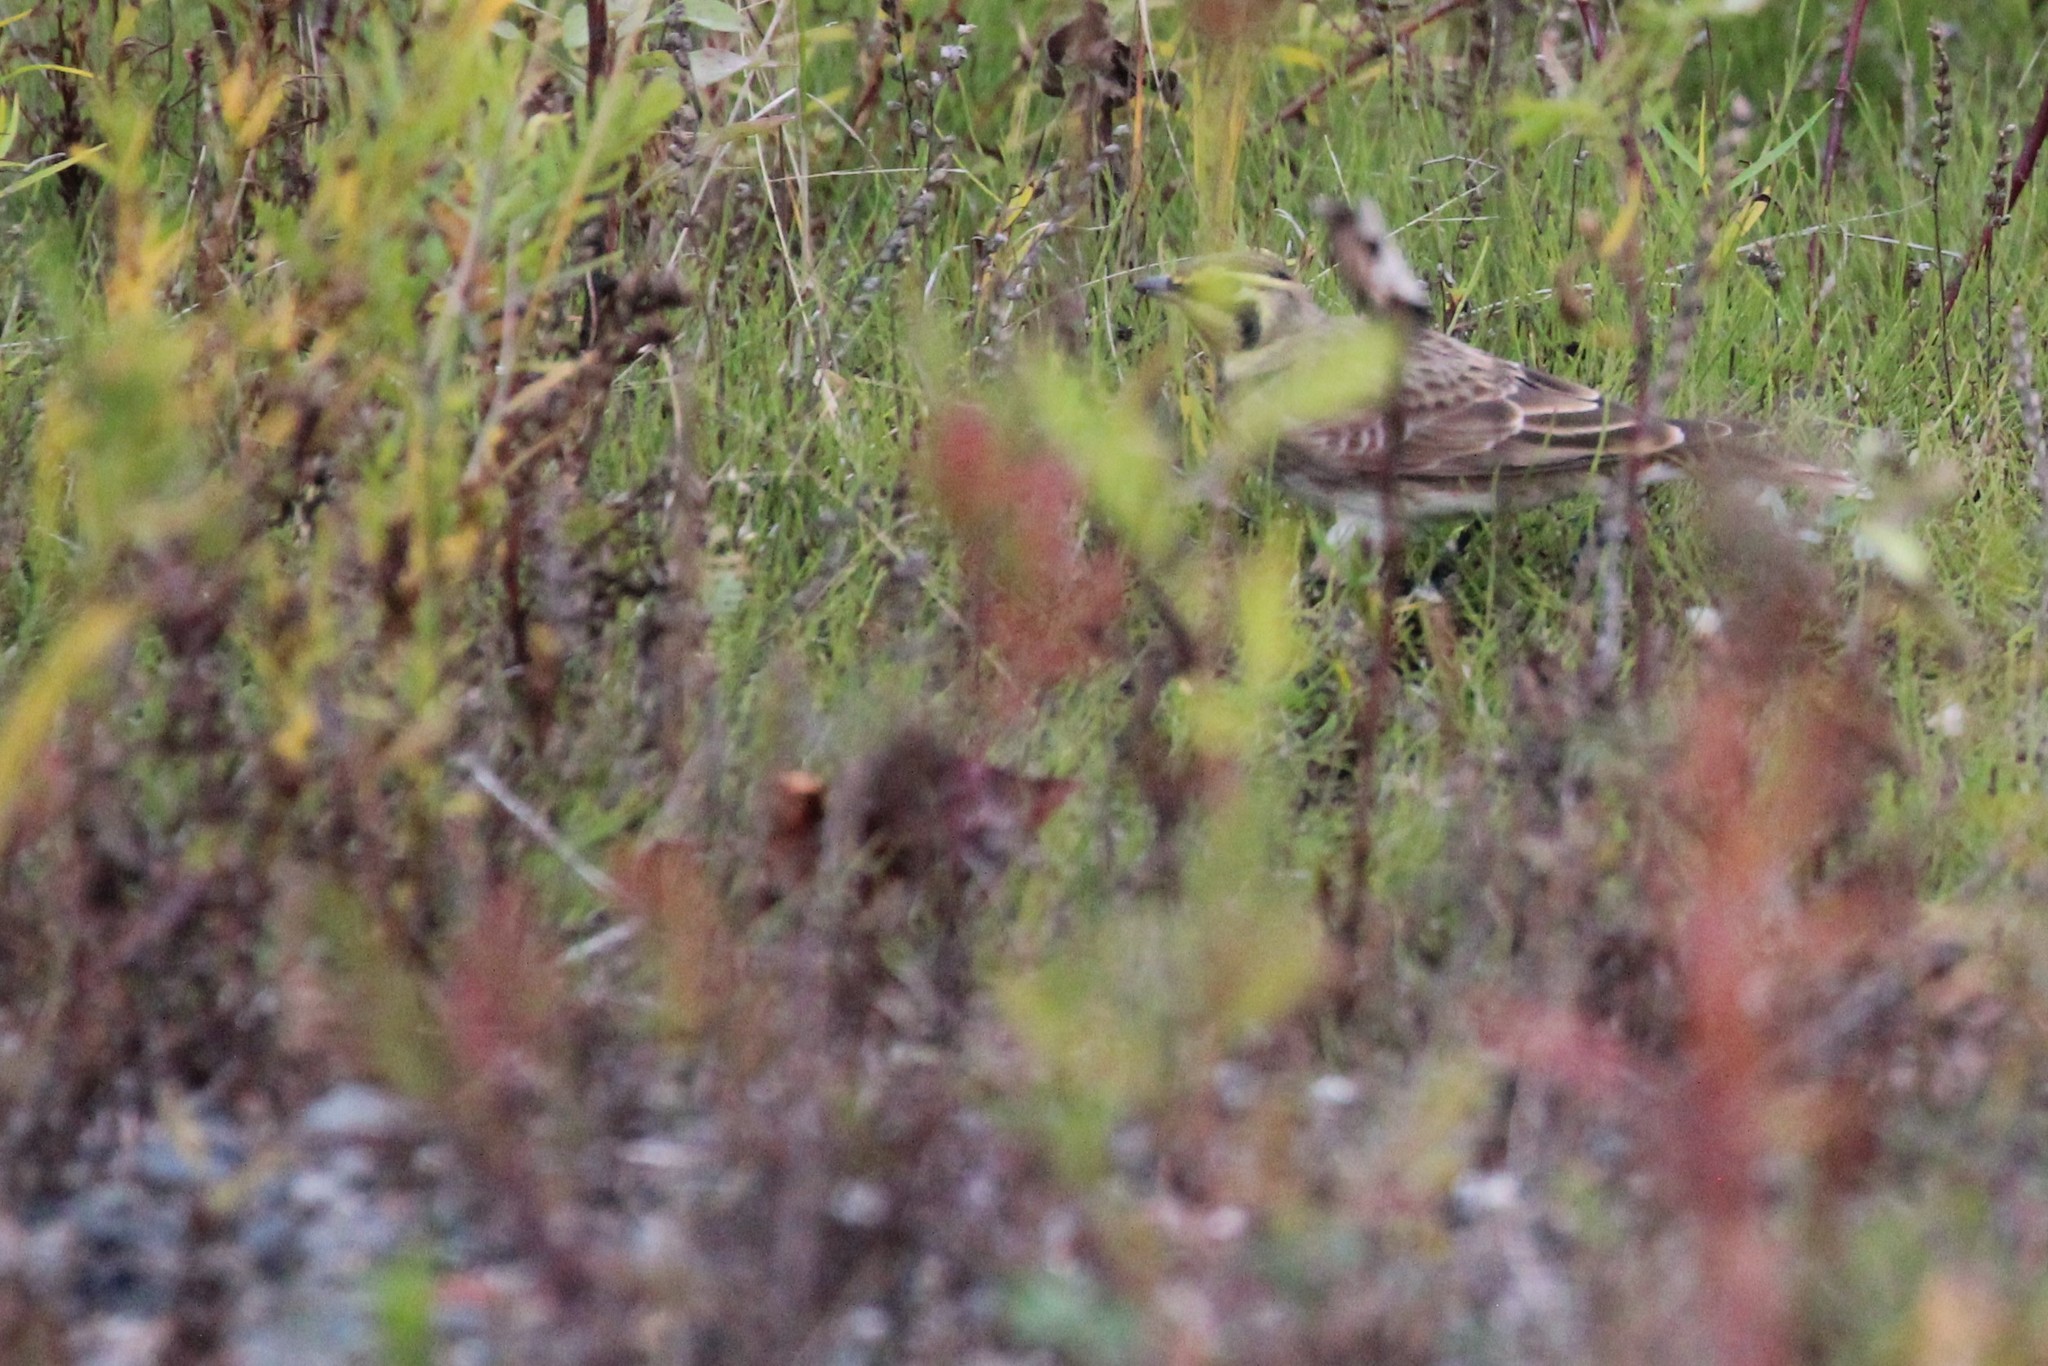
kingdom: Animalia
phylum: Chordata
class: Aves
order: Passeriformes
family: Alaudidae
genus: Eremophila
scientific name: Eremophila alpestris
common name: Horned lark
